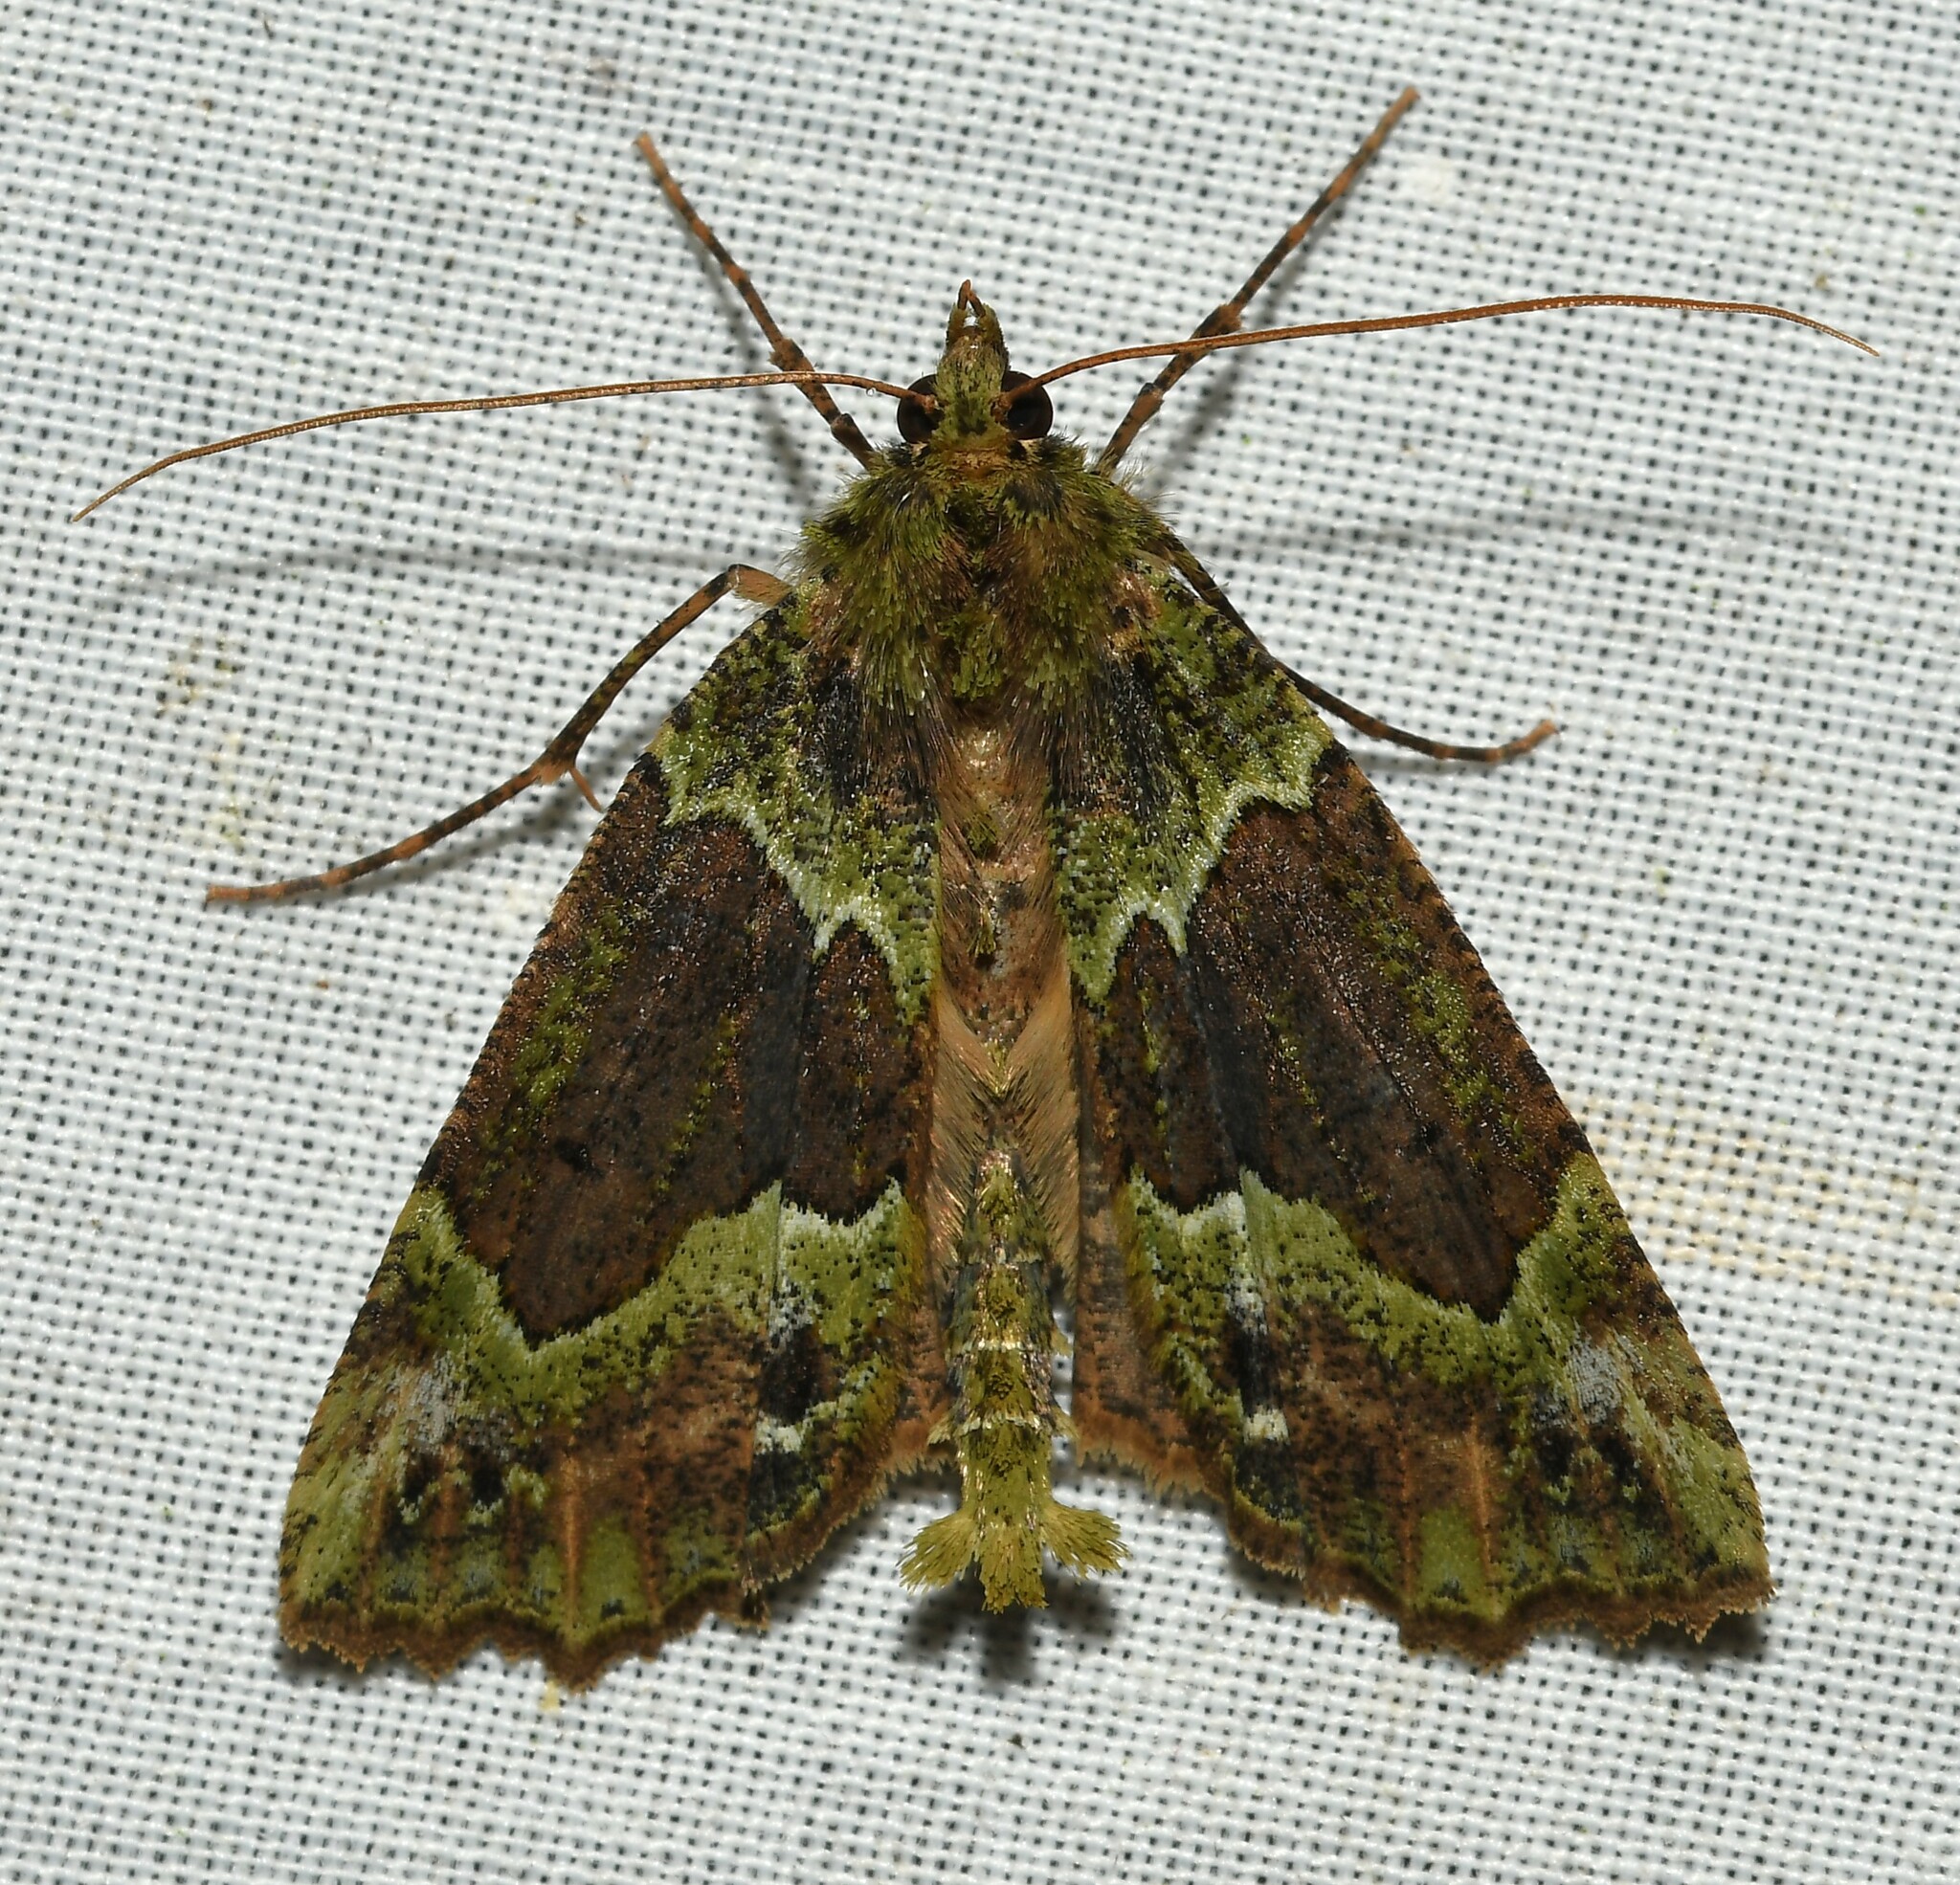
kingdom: Animalia
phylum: Arthropoda
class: Insecta
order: Lepidoptera
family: Geometridae
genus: Chrysomima
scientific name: Chrysomima semilutearia
